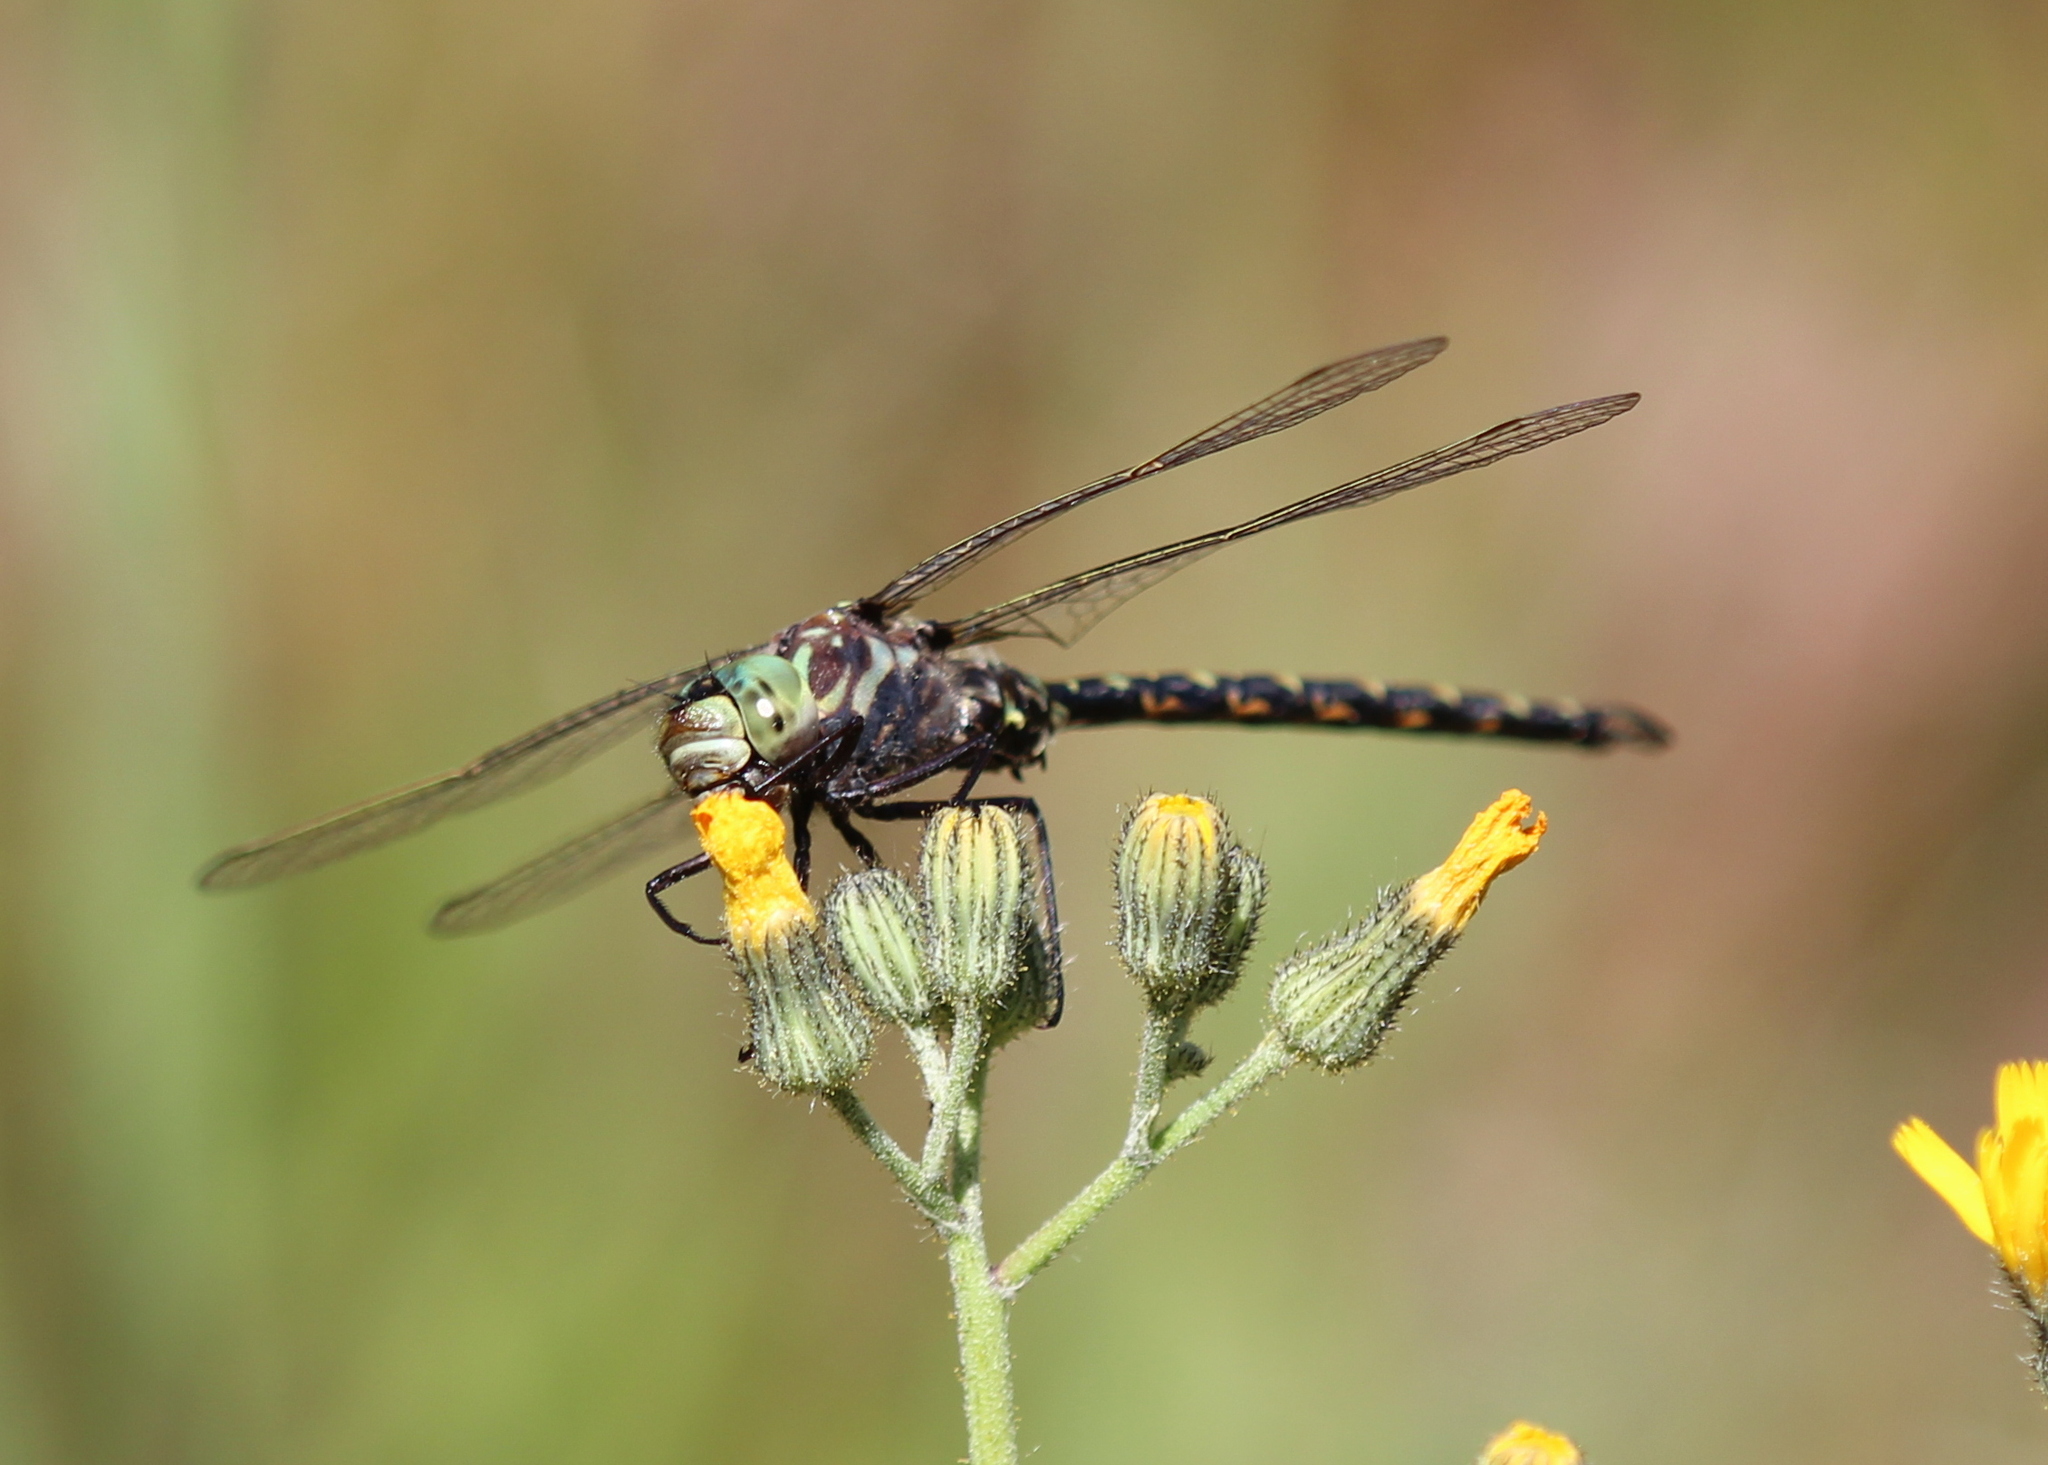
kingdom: Animalia
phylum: Arthropoda
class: Insecta
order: Odonata
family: Aeshnidae
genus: Gomphaeschna
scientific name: Gomphaeschna furcillata
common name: Harlequin darner
